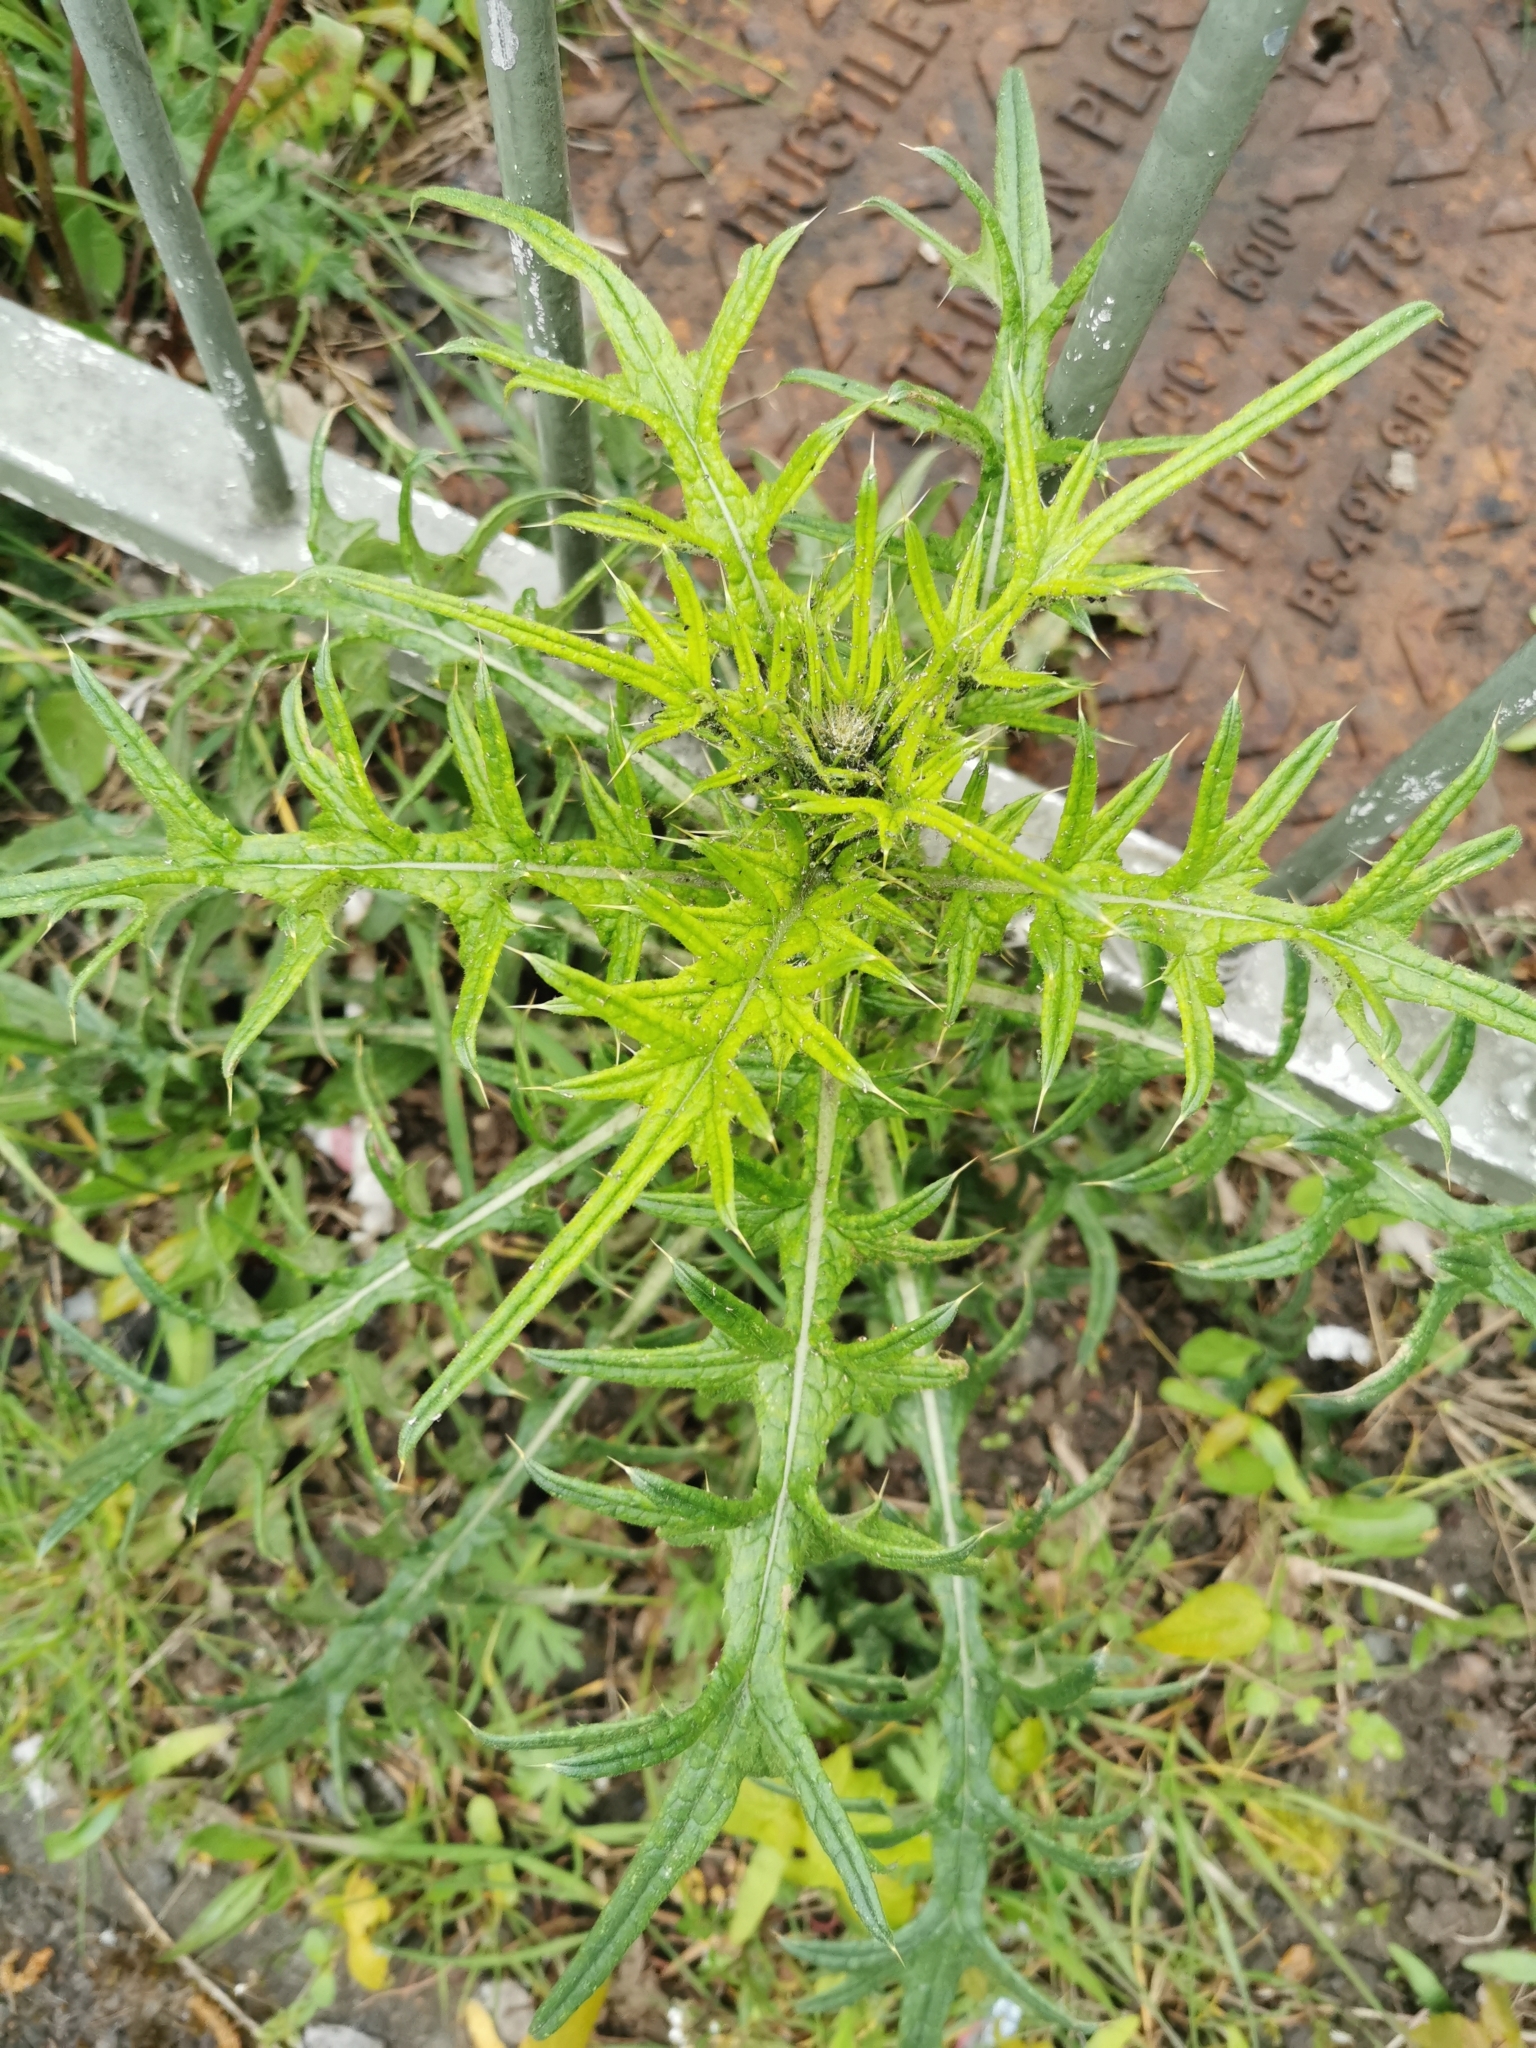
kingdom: Plantae
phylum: Tracheophyta
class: Magnoliopsida
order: Asterales
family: Asteraceae
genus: Cirsium
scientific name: Cirsium vulgare
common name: Bull thistle
